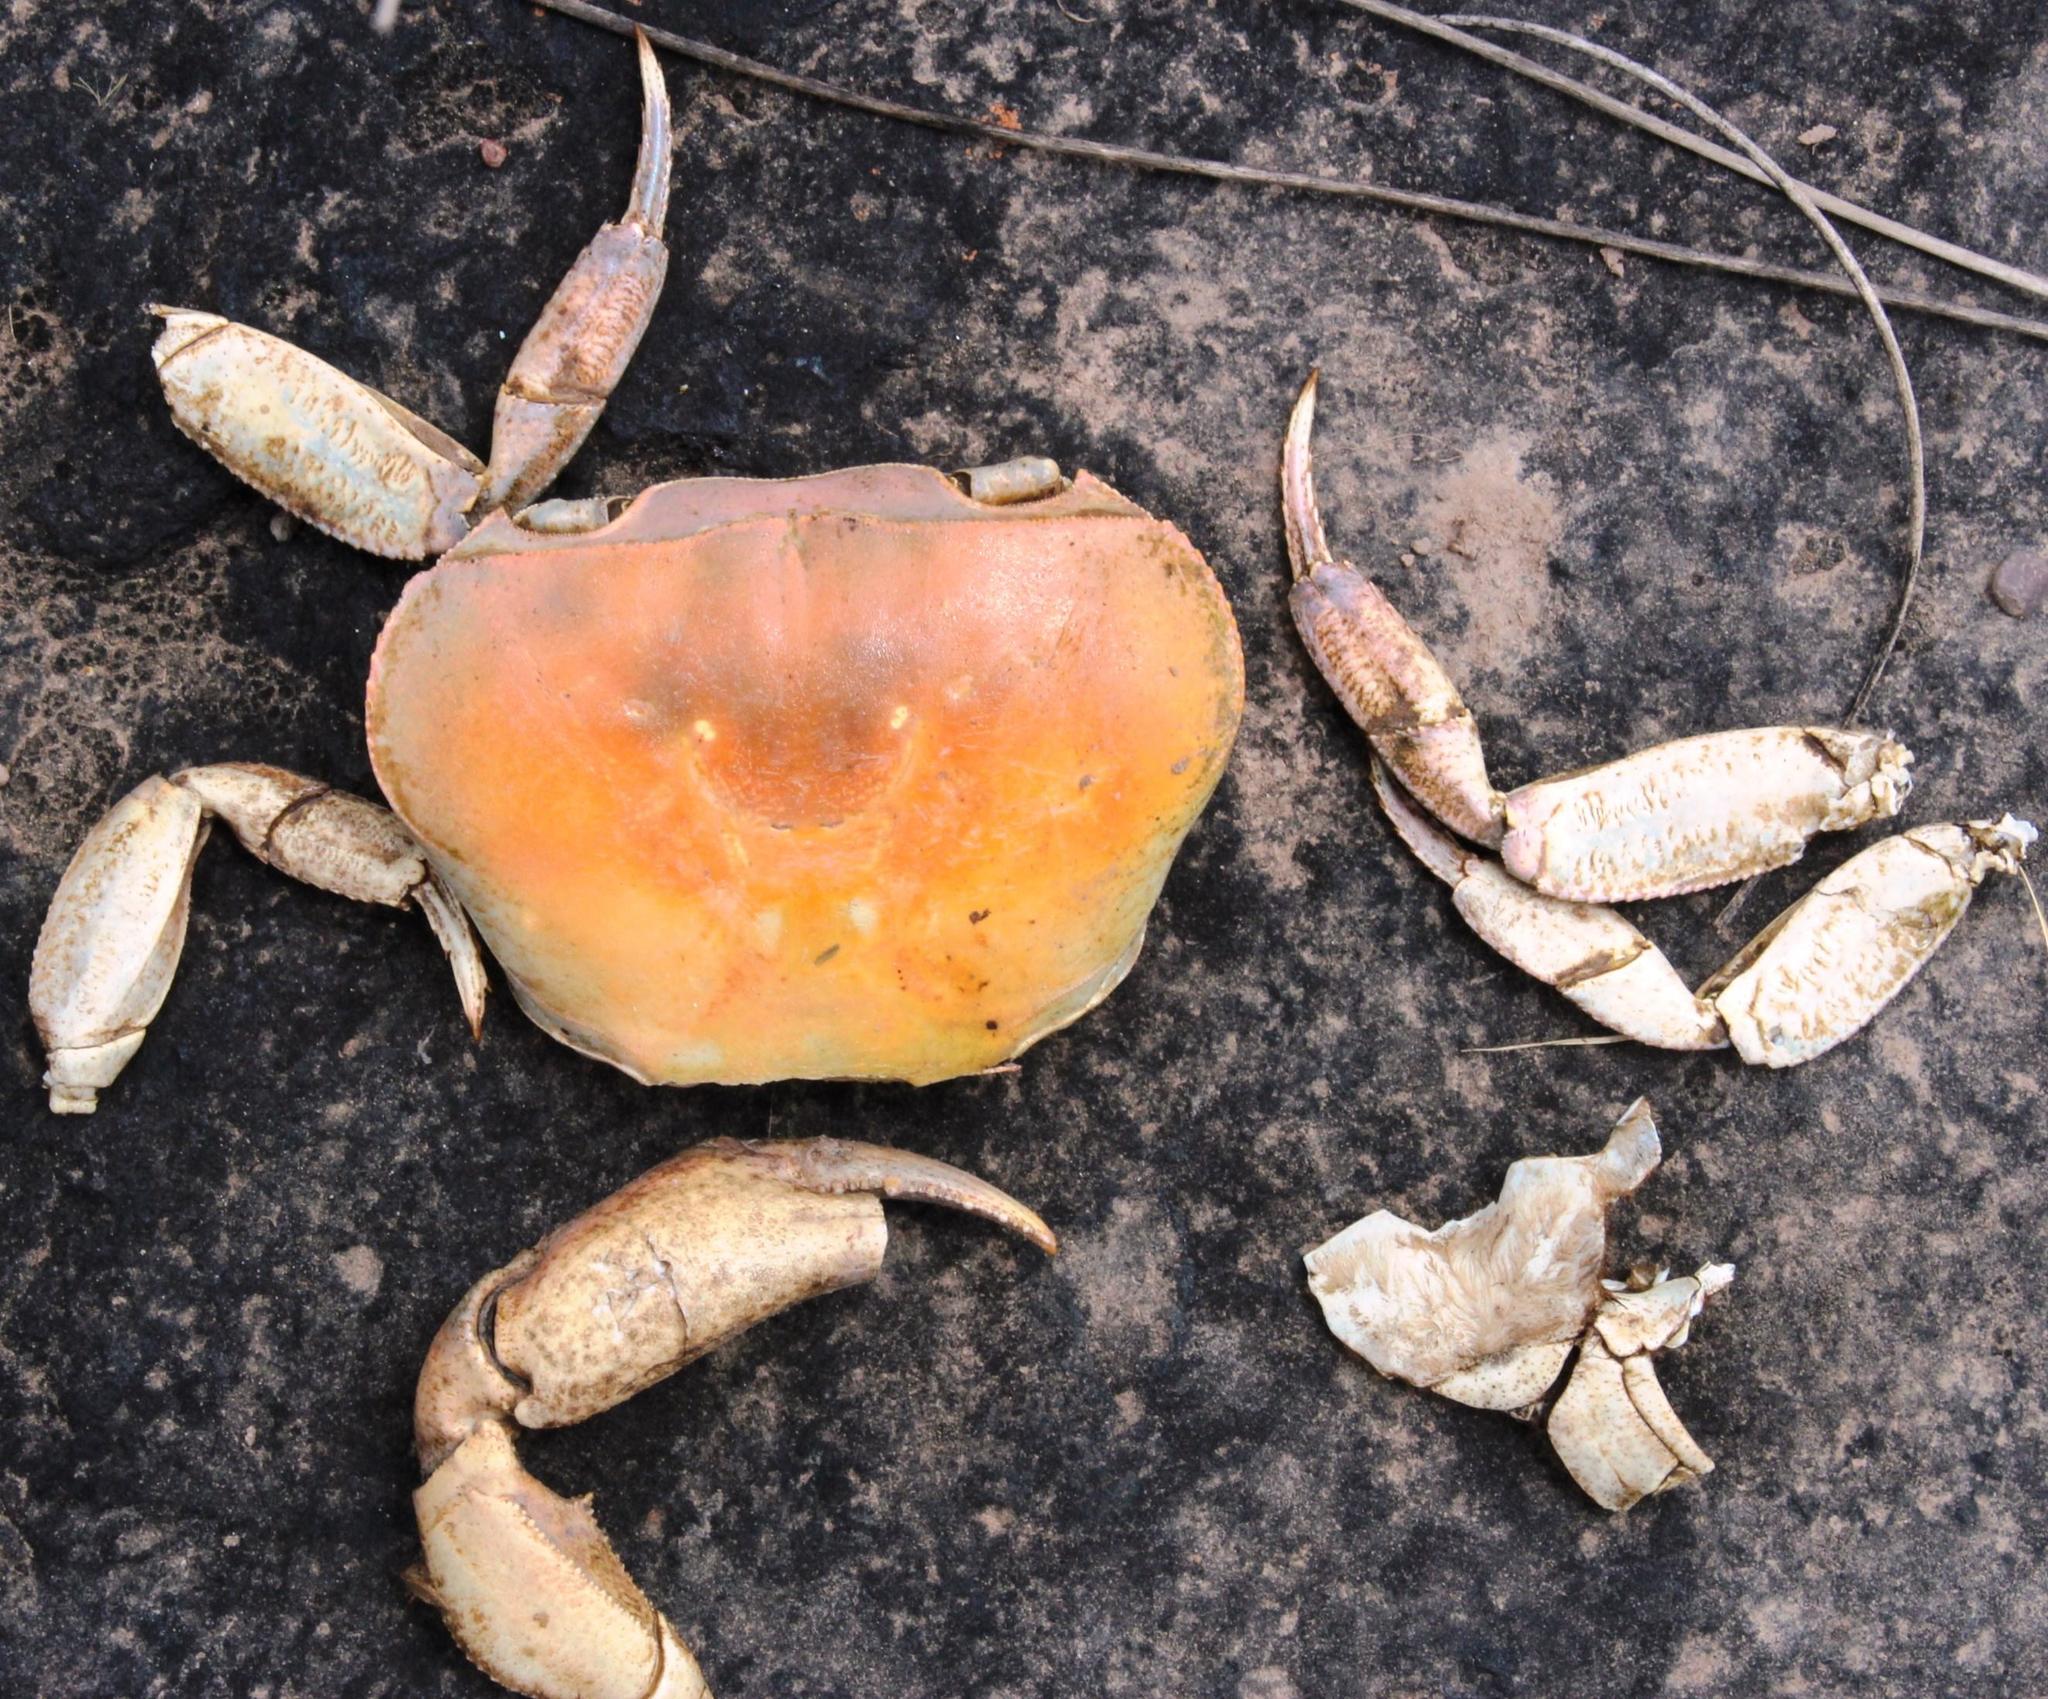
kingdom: Animalia
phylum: Arthropoda
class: Malacostraca
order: Decapoda
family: Potamonautidae
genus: Potamonautes
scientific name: Potamonautes perlatus
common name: Cape river crab
